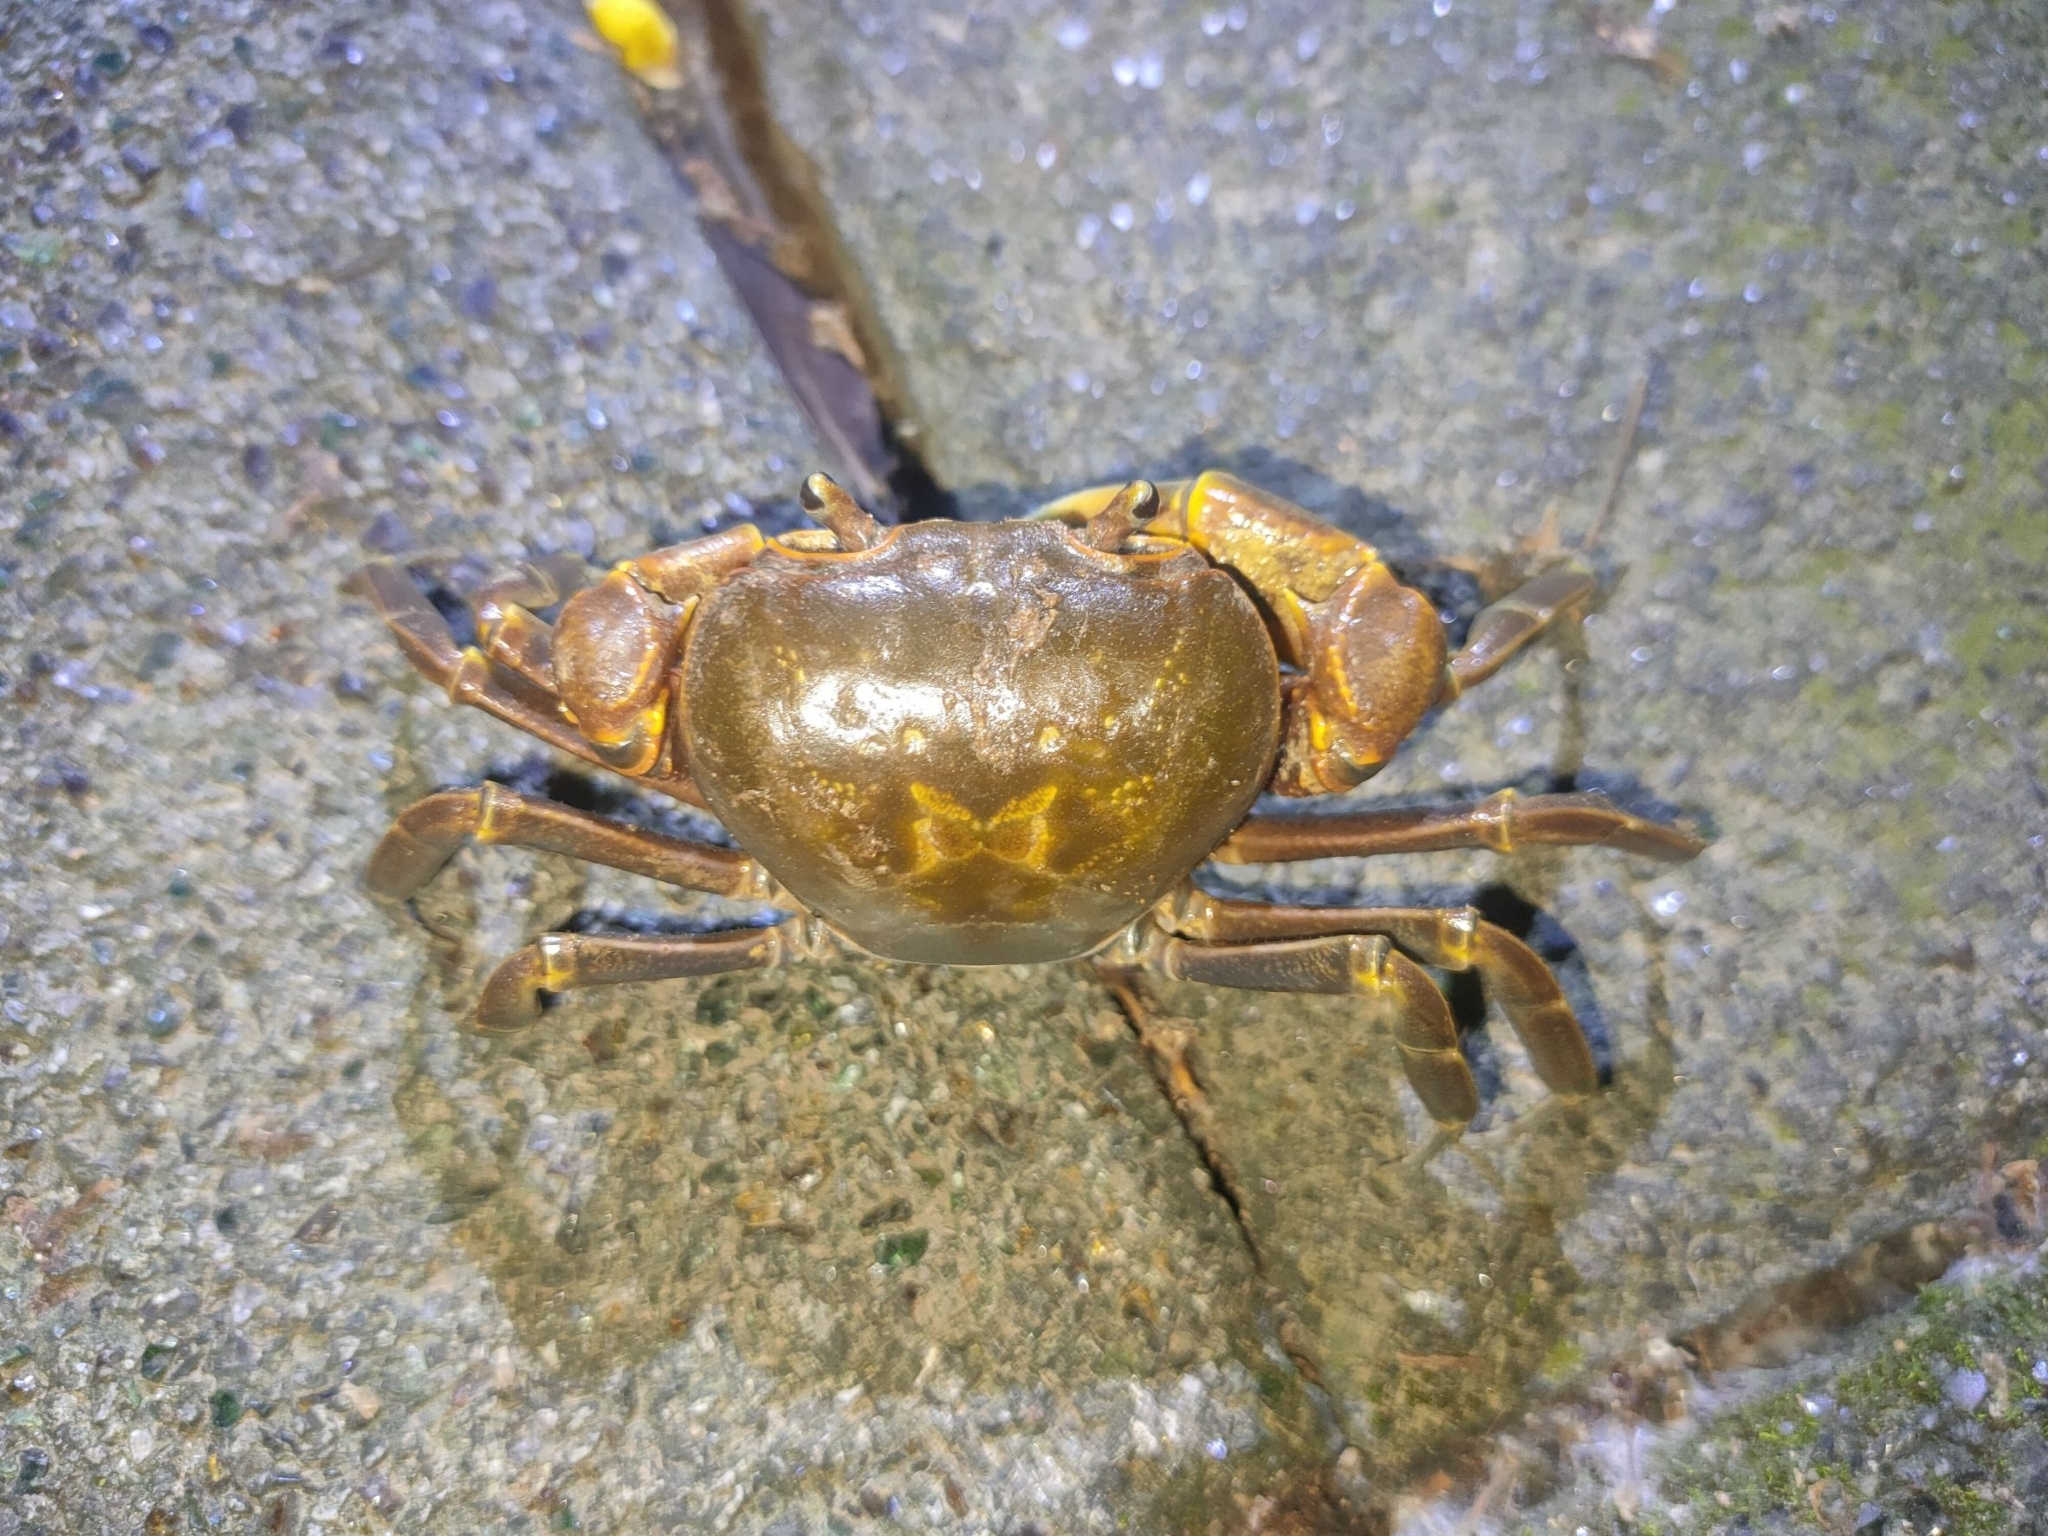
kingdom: Animalia
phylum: Arthropoda
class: Malacostraca
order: Decapoda
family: Potamidae
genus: Nanhaipotamon
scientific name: Nanhaipotamon formosanum
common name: Taiwan's south china sea river crab
